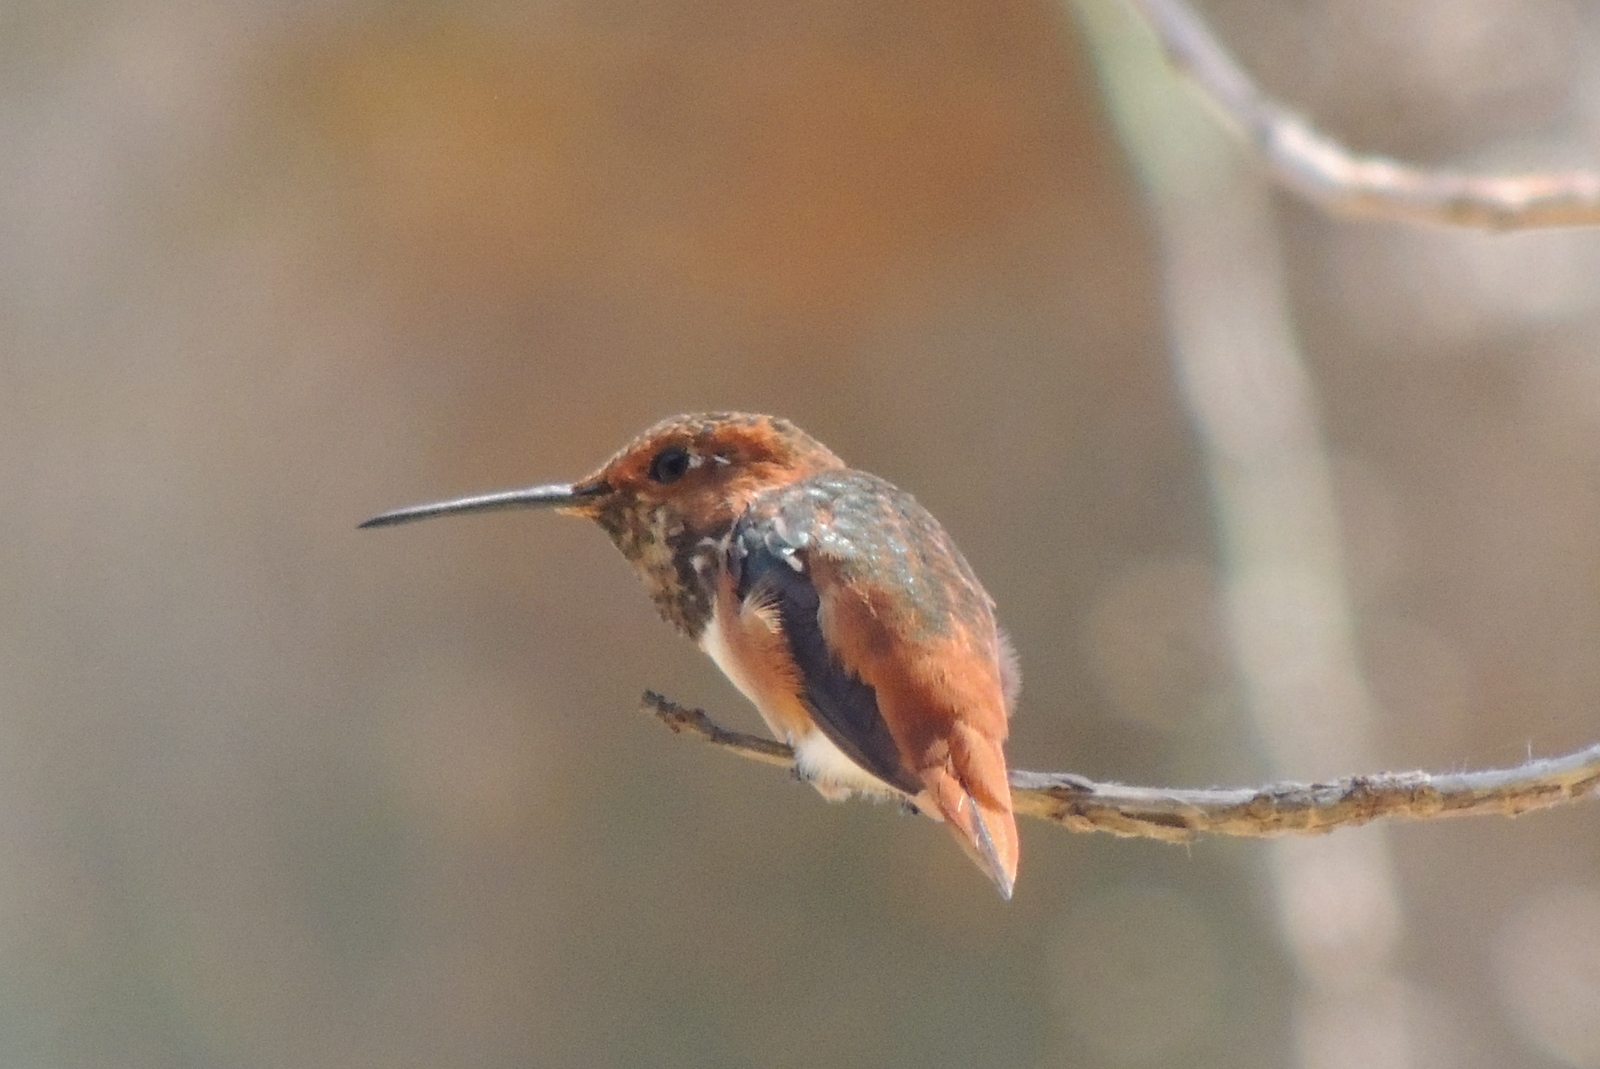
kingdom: Animalia
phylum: Chordata
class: Aves
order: Apodiformes
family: Trochilidae
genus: Selasphorus
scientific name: Selasphorus sasin
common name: Allen's hummingbird
